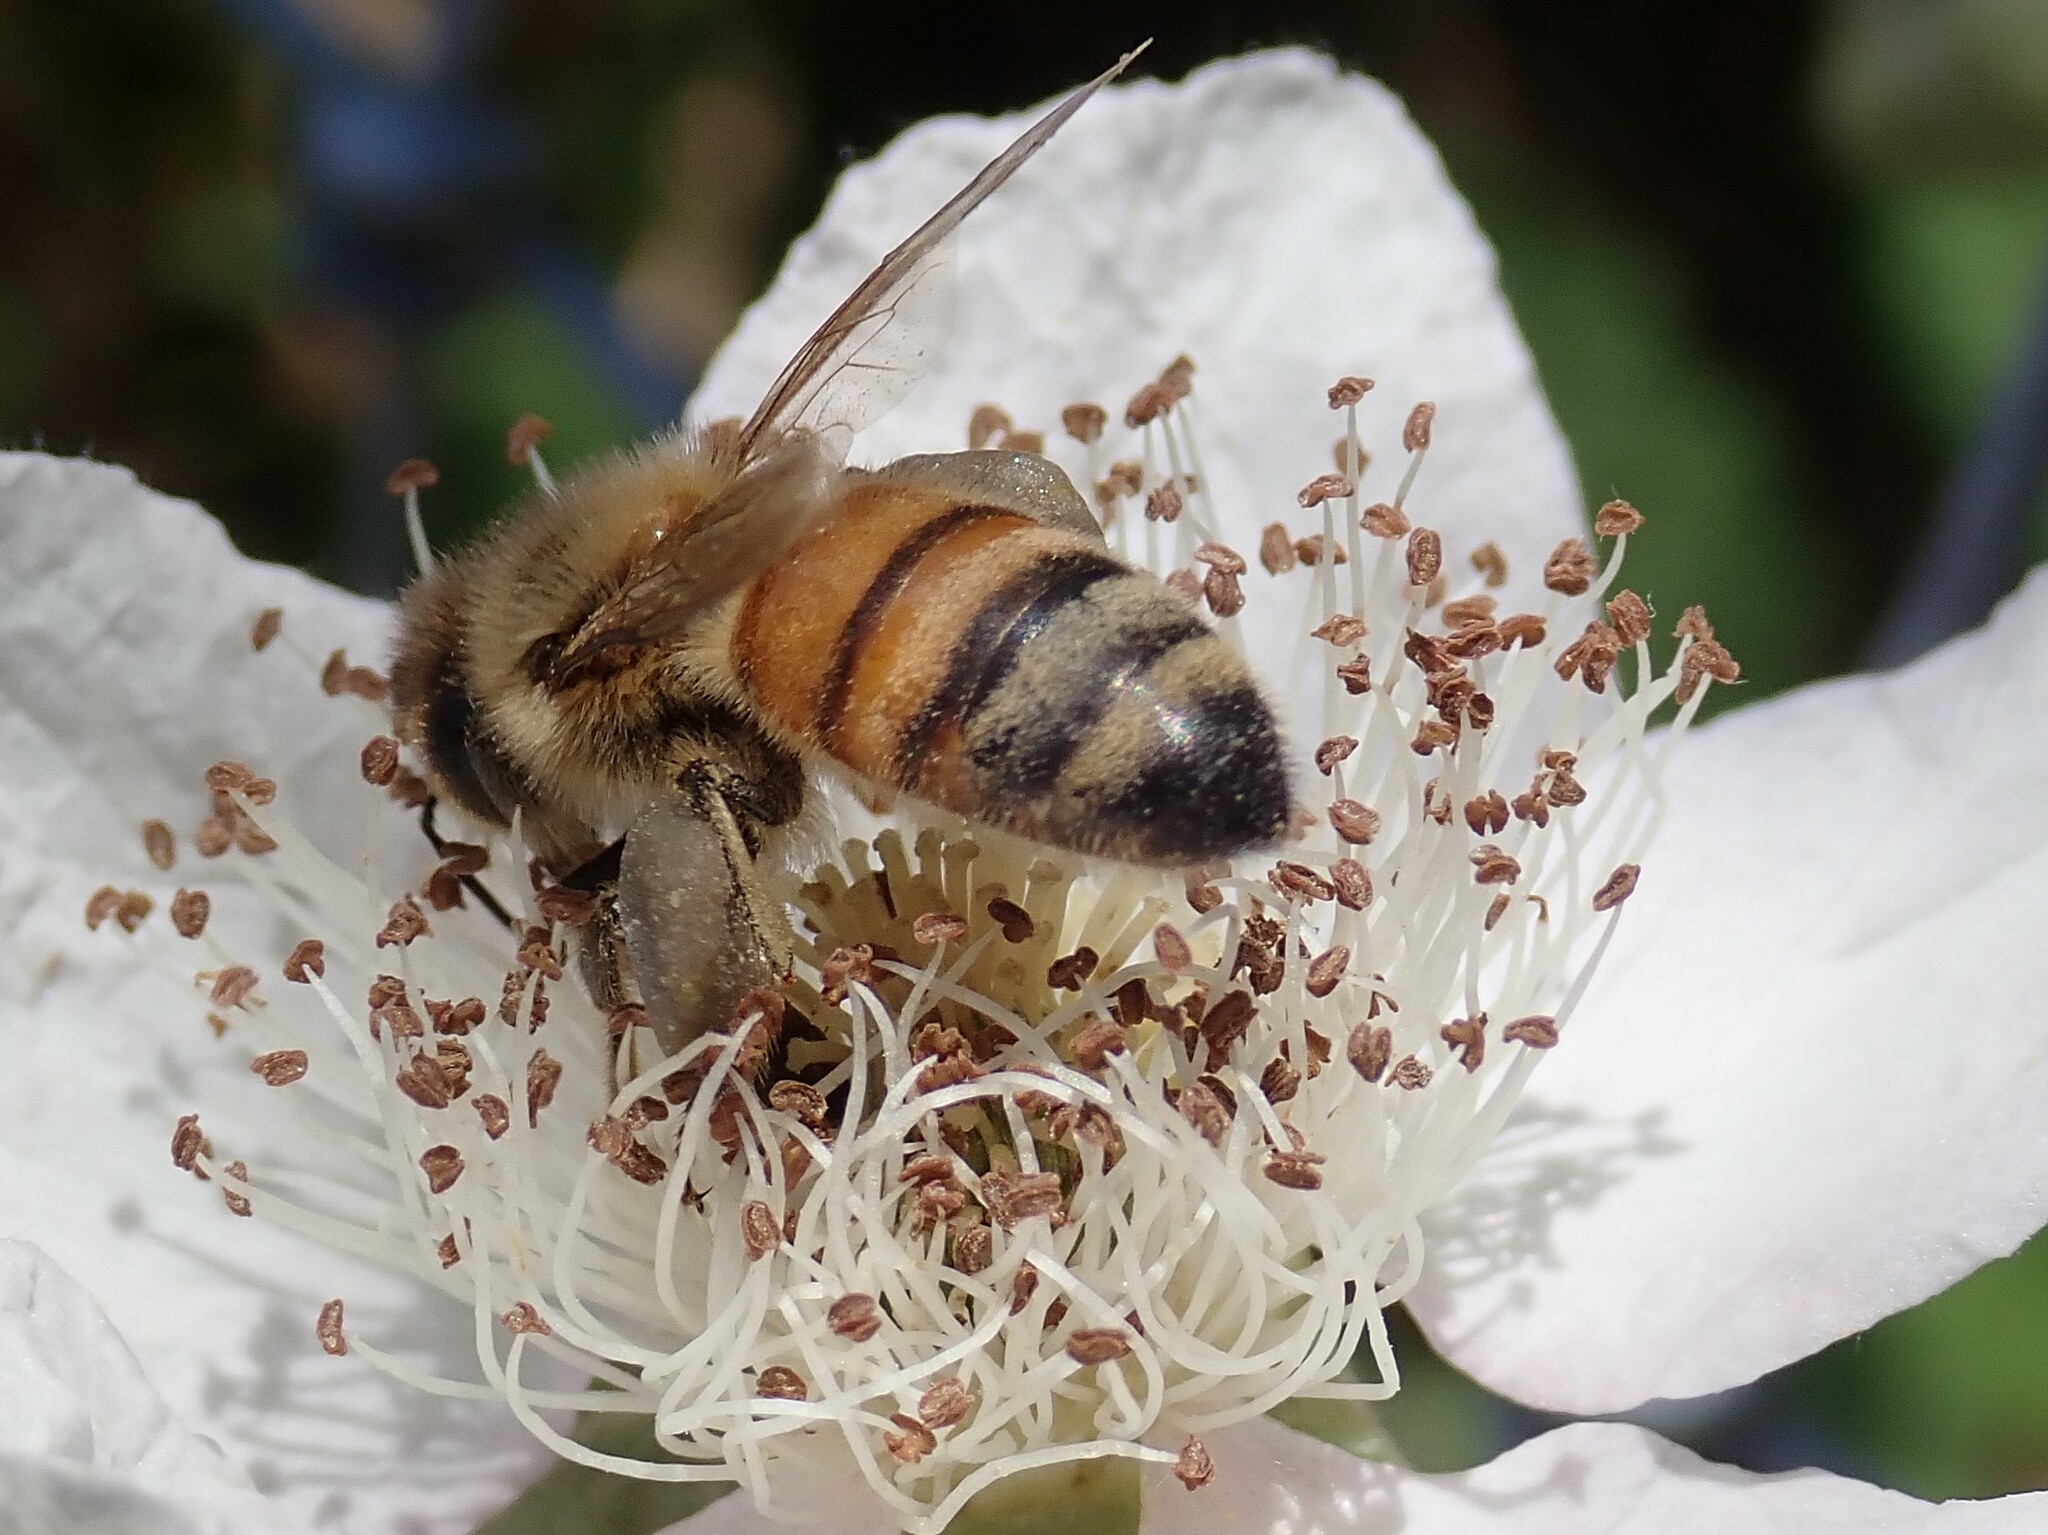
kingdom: Animalia
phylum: Arthropoda
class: Insecta
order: Hymenoptera
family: Apidae
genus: Apis
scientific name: Apis mellifera
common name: Honey bee
